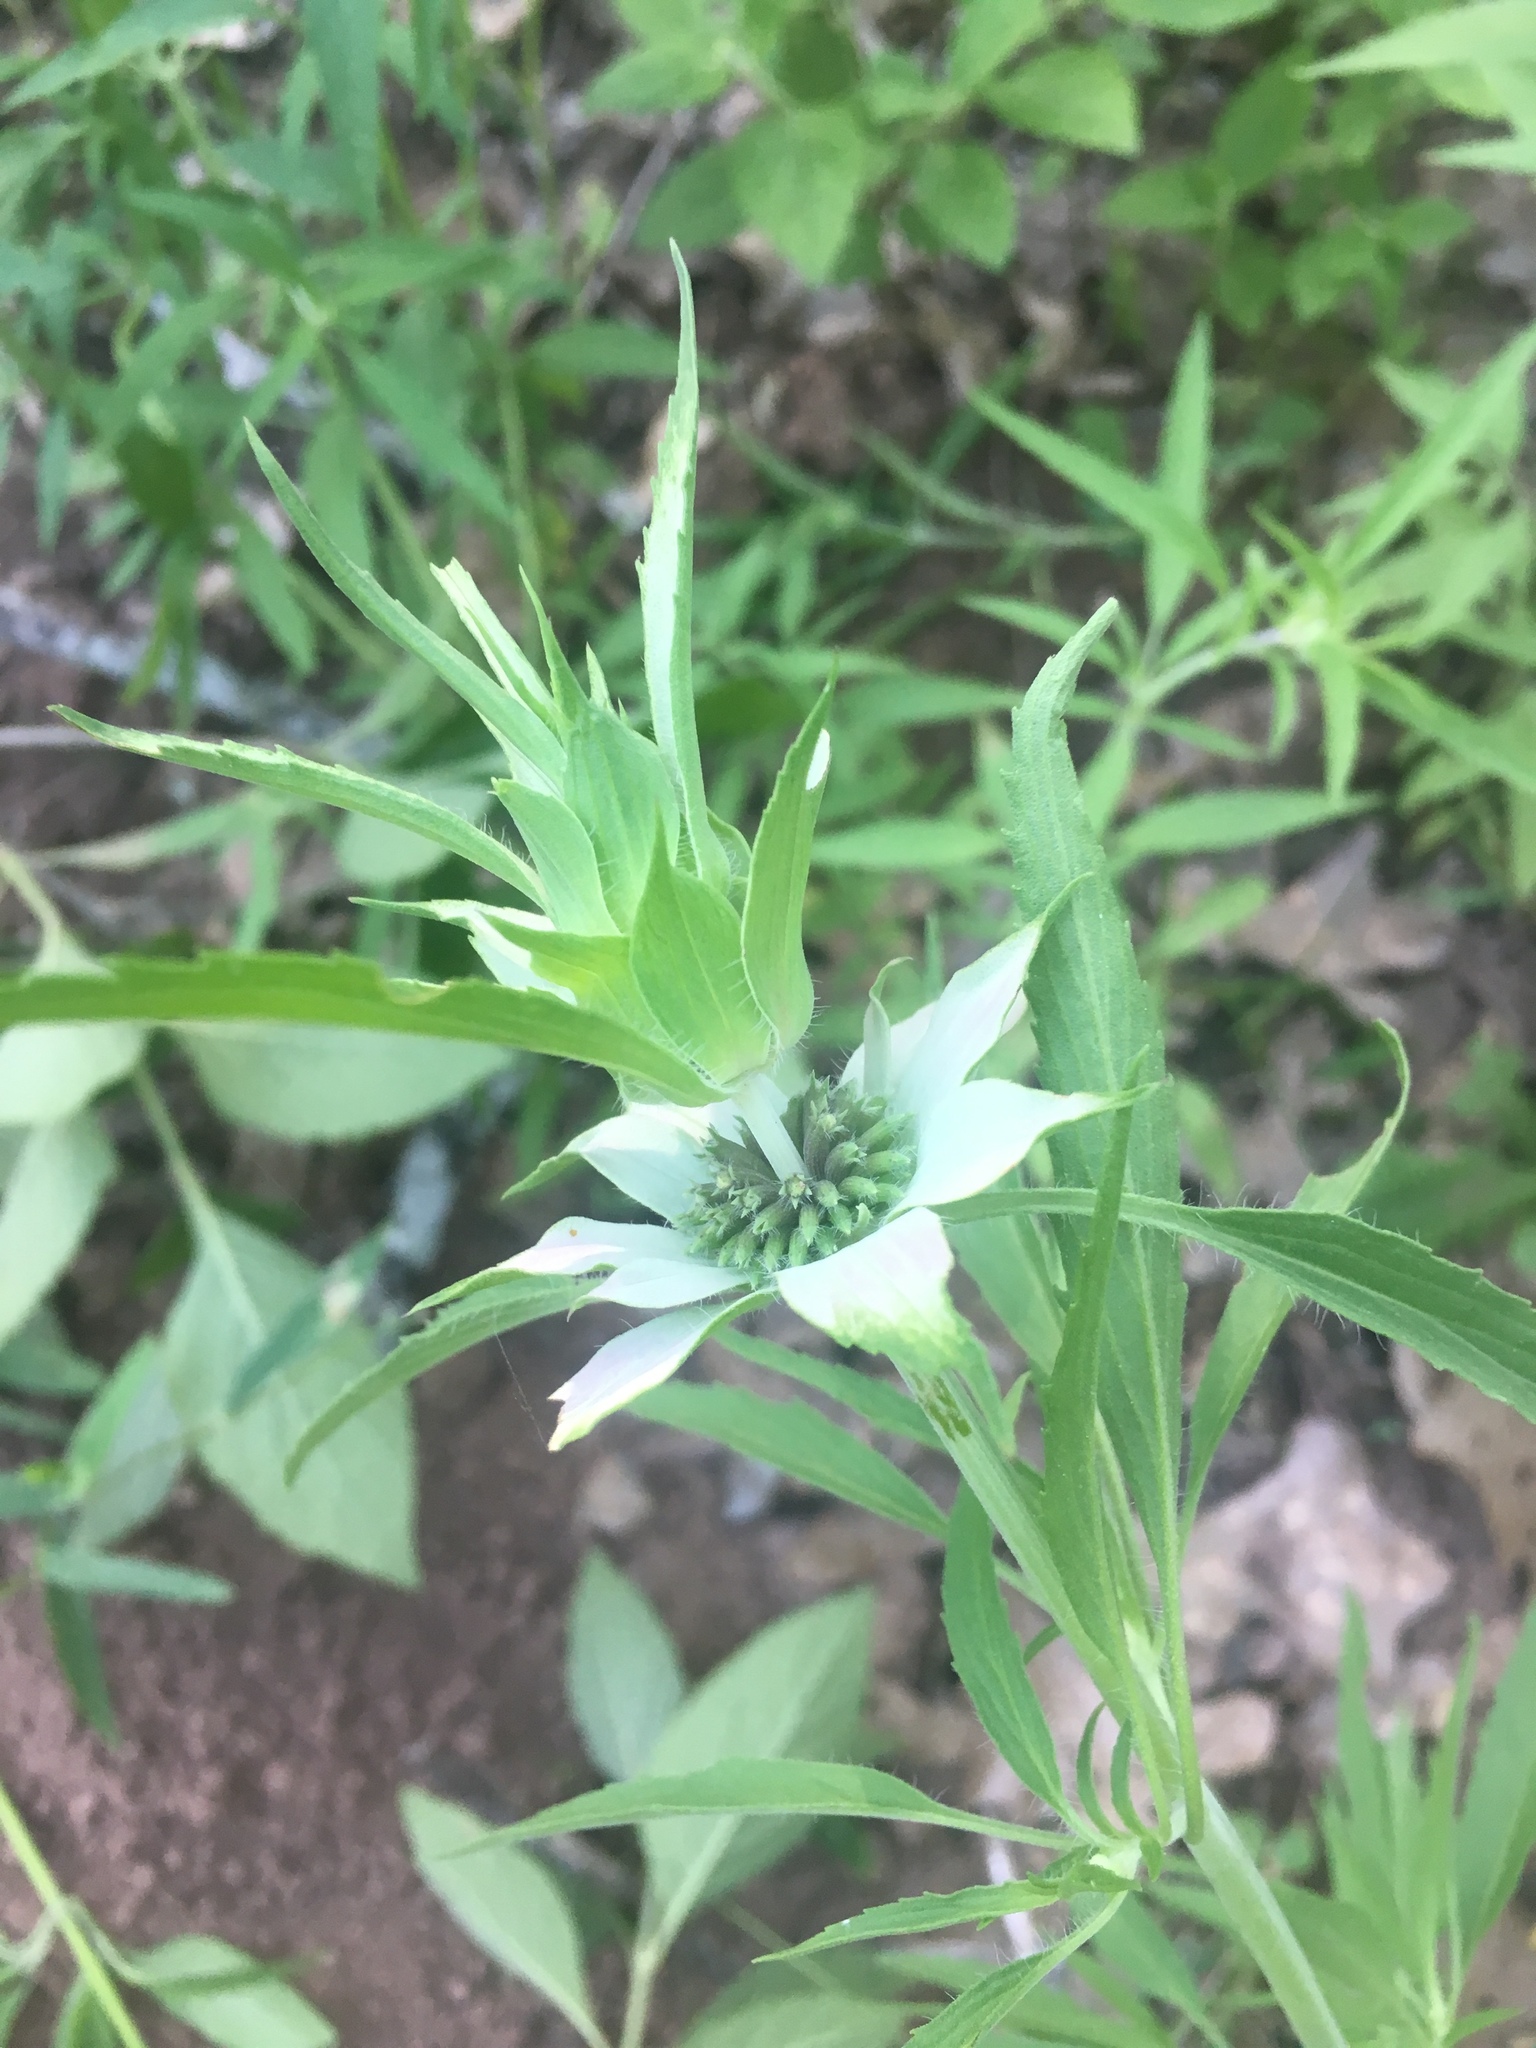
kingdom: Plantae
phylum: Tracheophyta
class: Magnoliopsida
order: Lamiales
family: Lamiaceae
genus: Monarda
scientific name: Monarda punctata
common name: Dotted monarda
